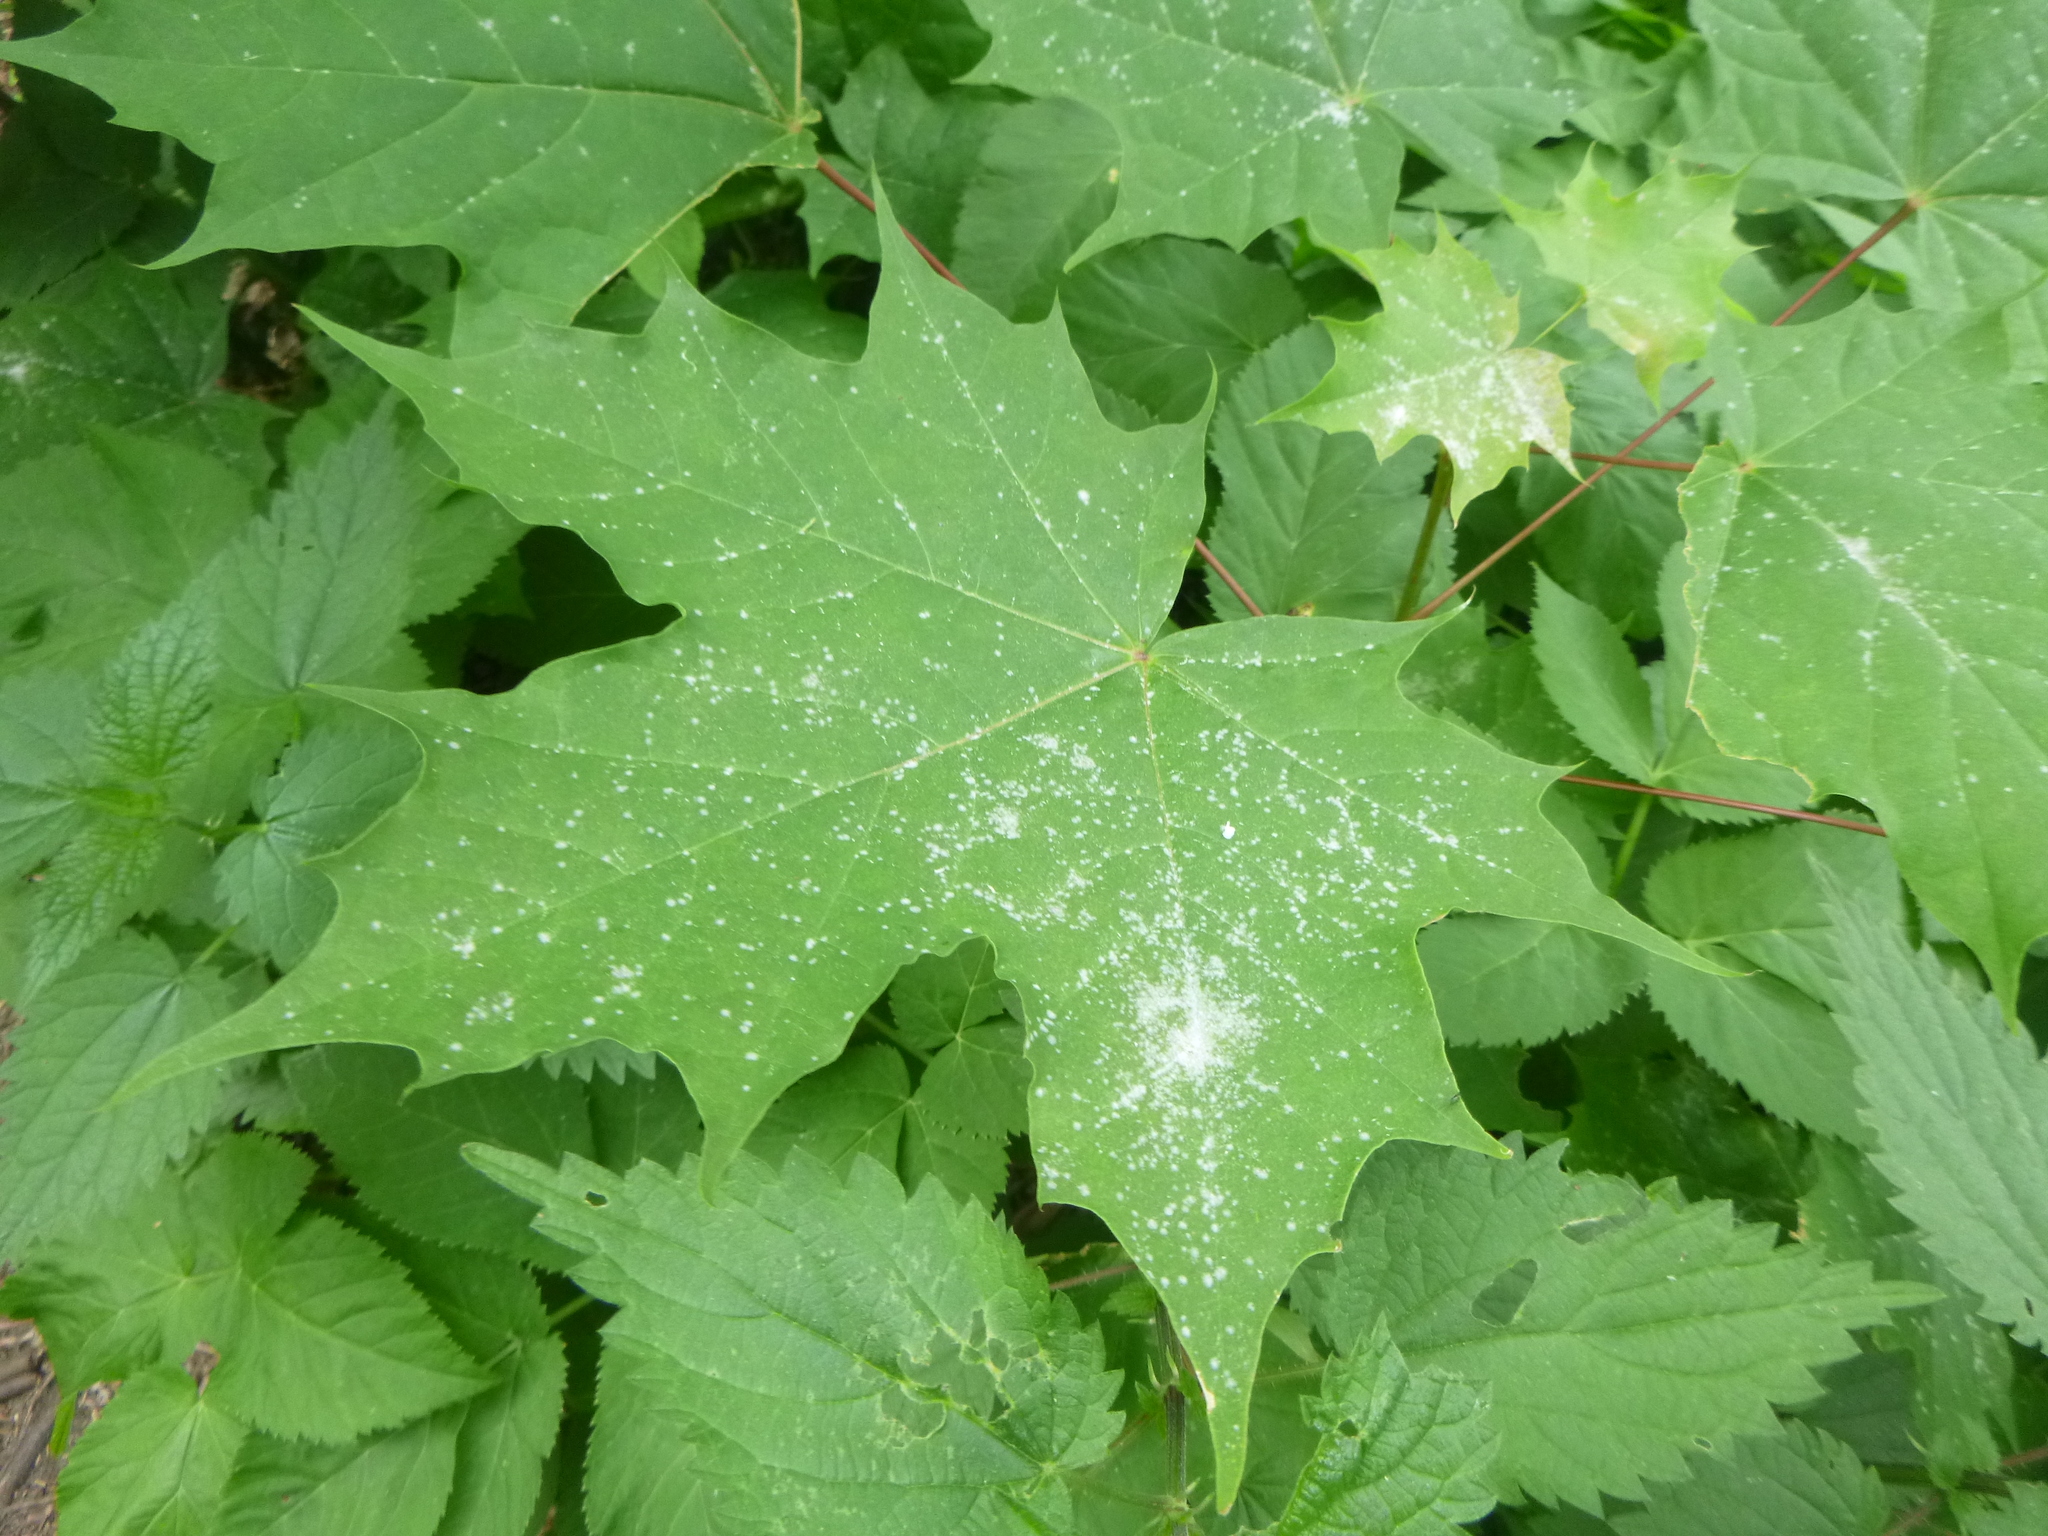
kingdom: Plantae
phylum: Tracheophyta
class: Magnoliopsida
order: Sapindales
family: Sapindaceae
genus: Acer
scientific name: Acer platanoides
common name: Norway maple
